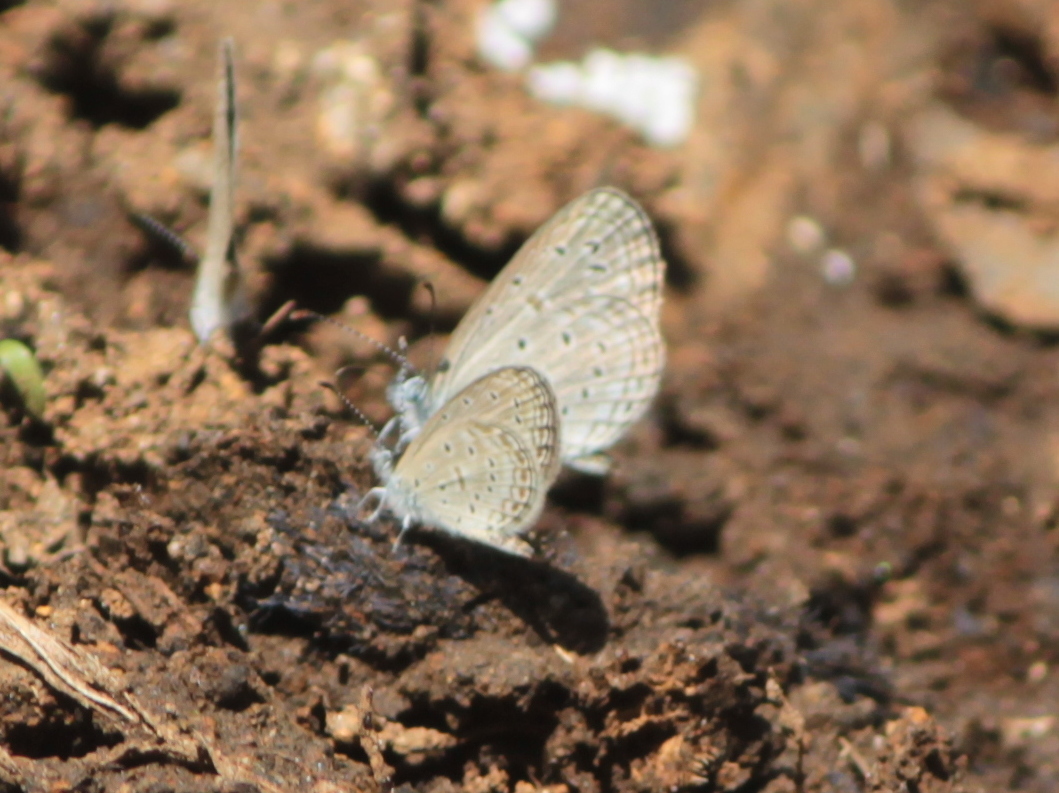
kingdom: Animalia
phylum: Arthropoda
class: Insecta
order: Lepidoptera
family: Lycaenidae
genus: Zizula
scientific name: Zizula hylax
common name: Gaika blue
